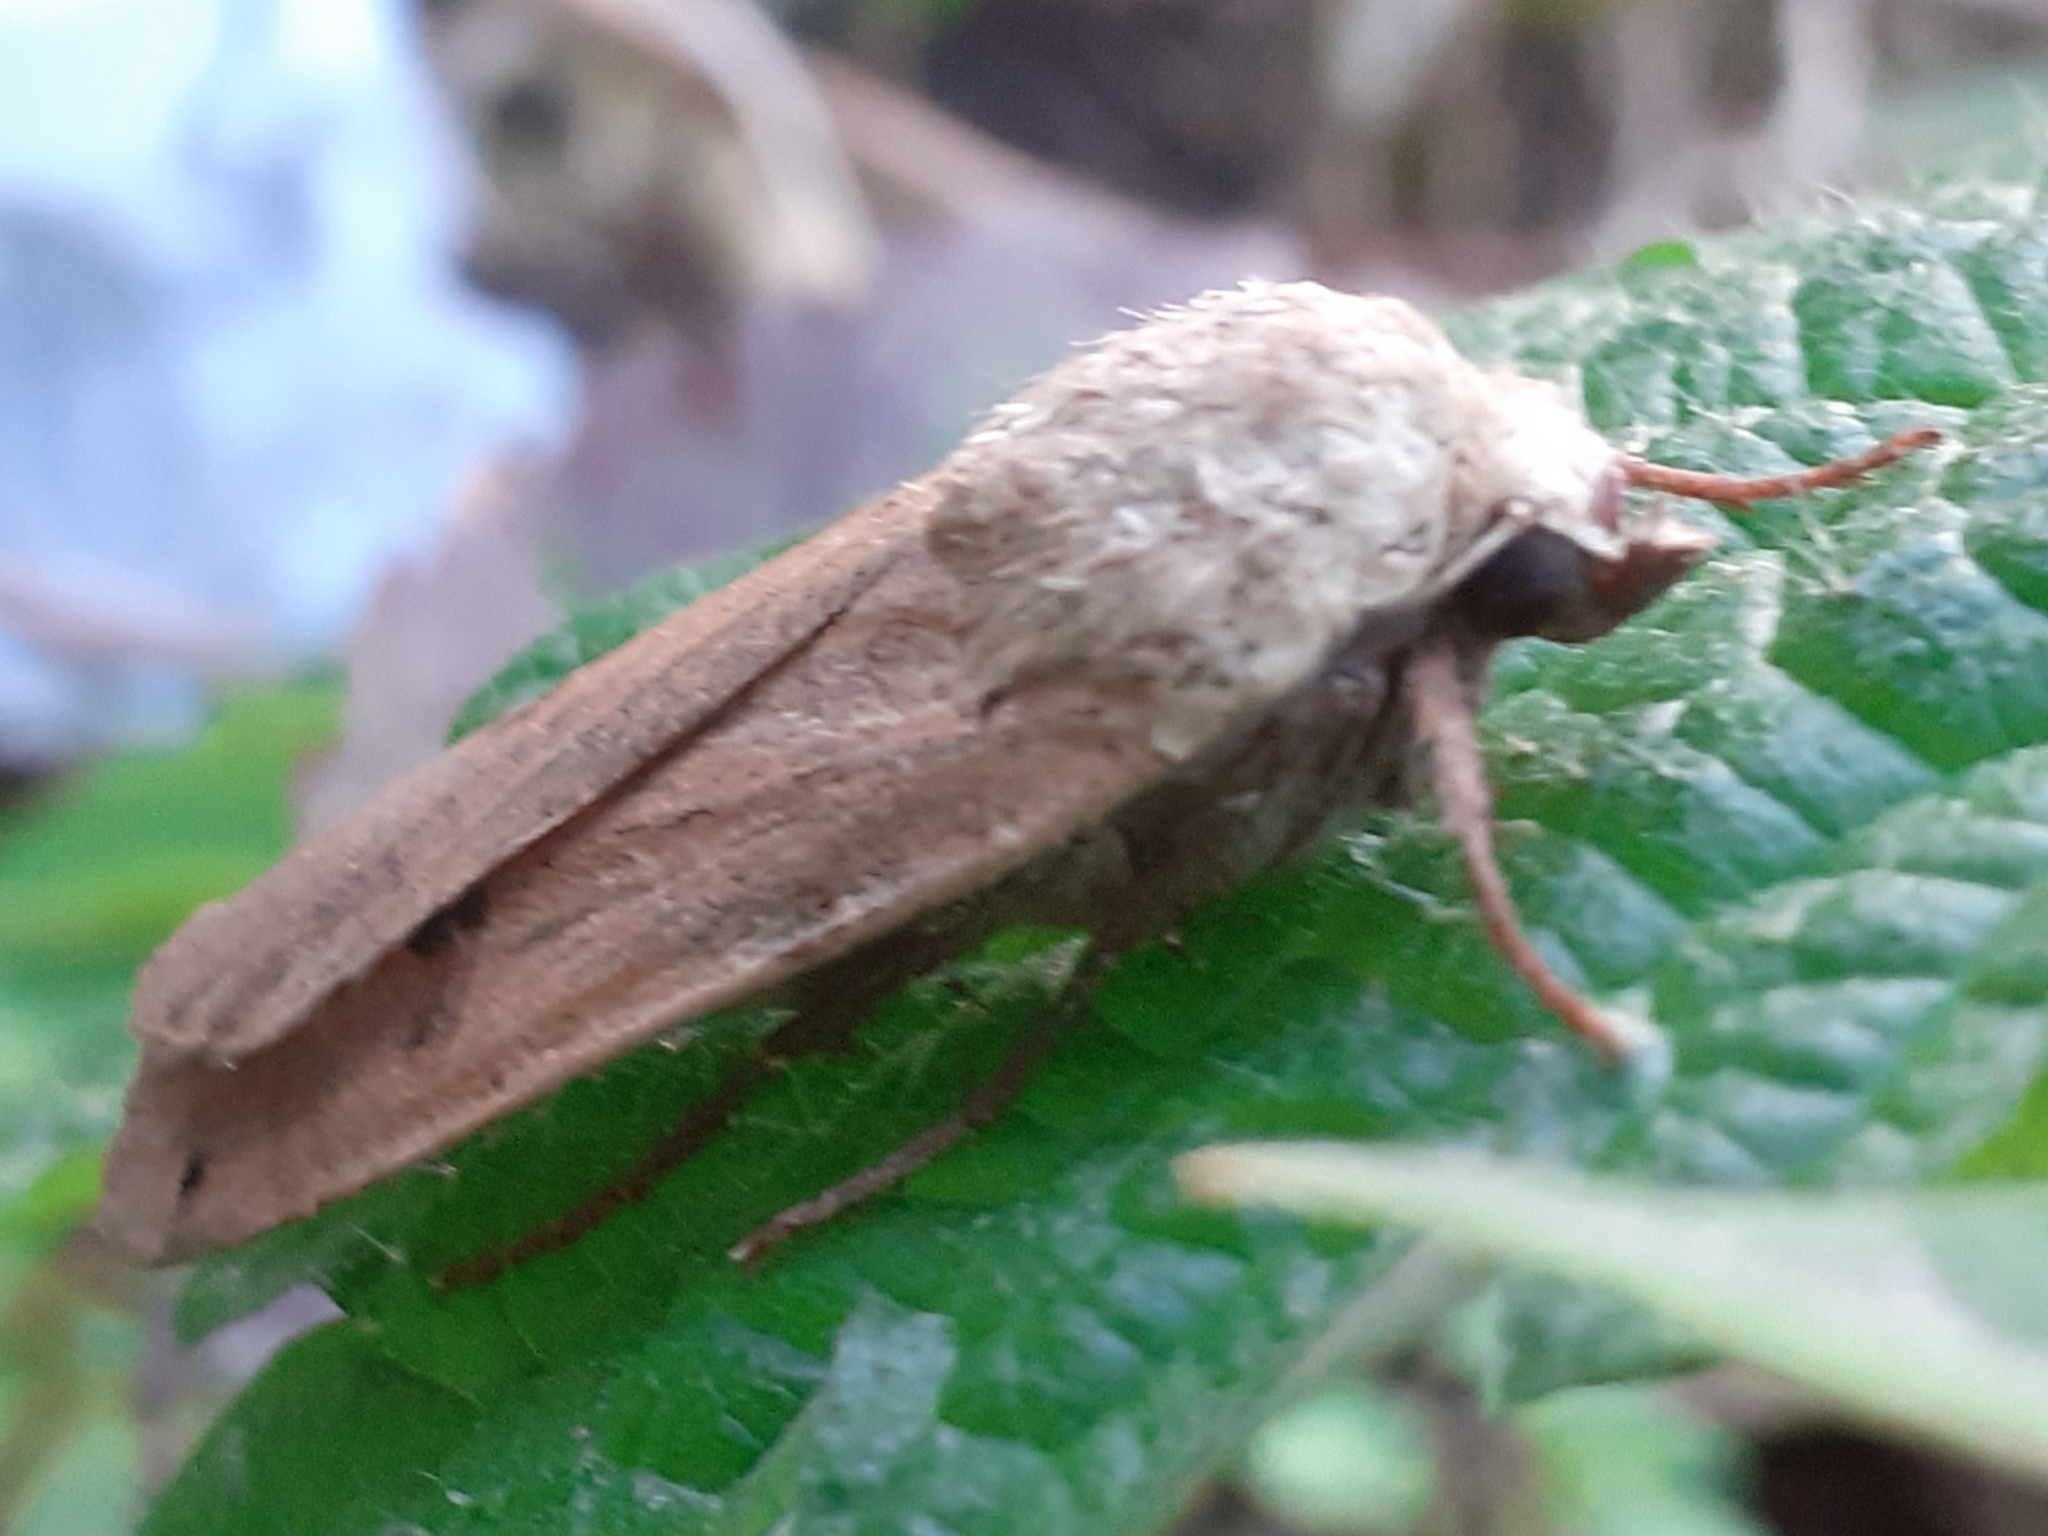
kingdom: Animalia
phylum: Arthropoda
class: Insecta
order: Lepidoptera
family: Noctuidae
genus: Noctua
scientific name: Noctua pronuba
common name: Large yellow underwing
